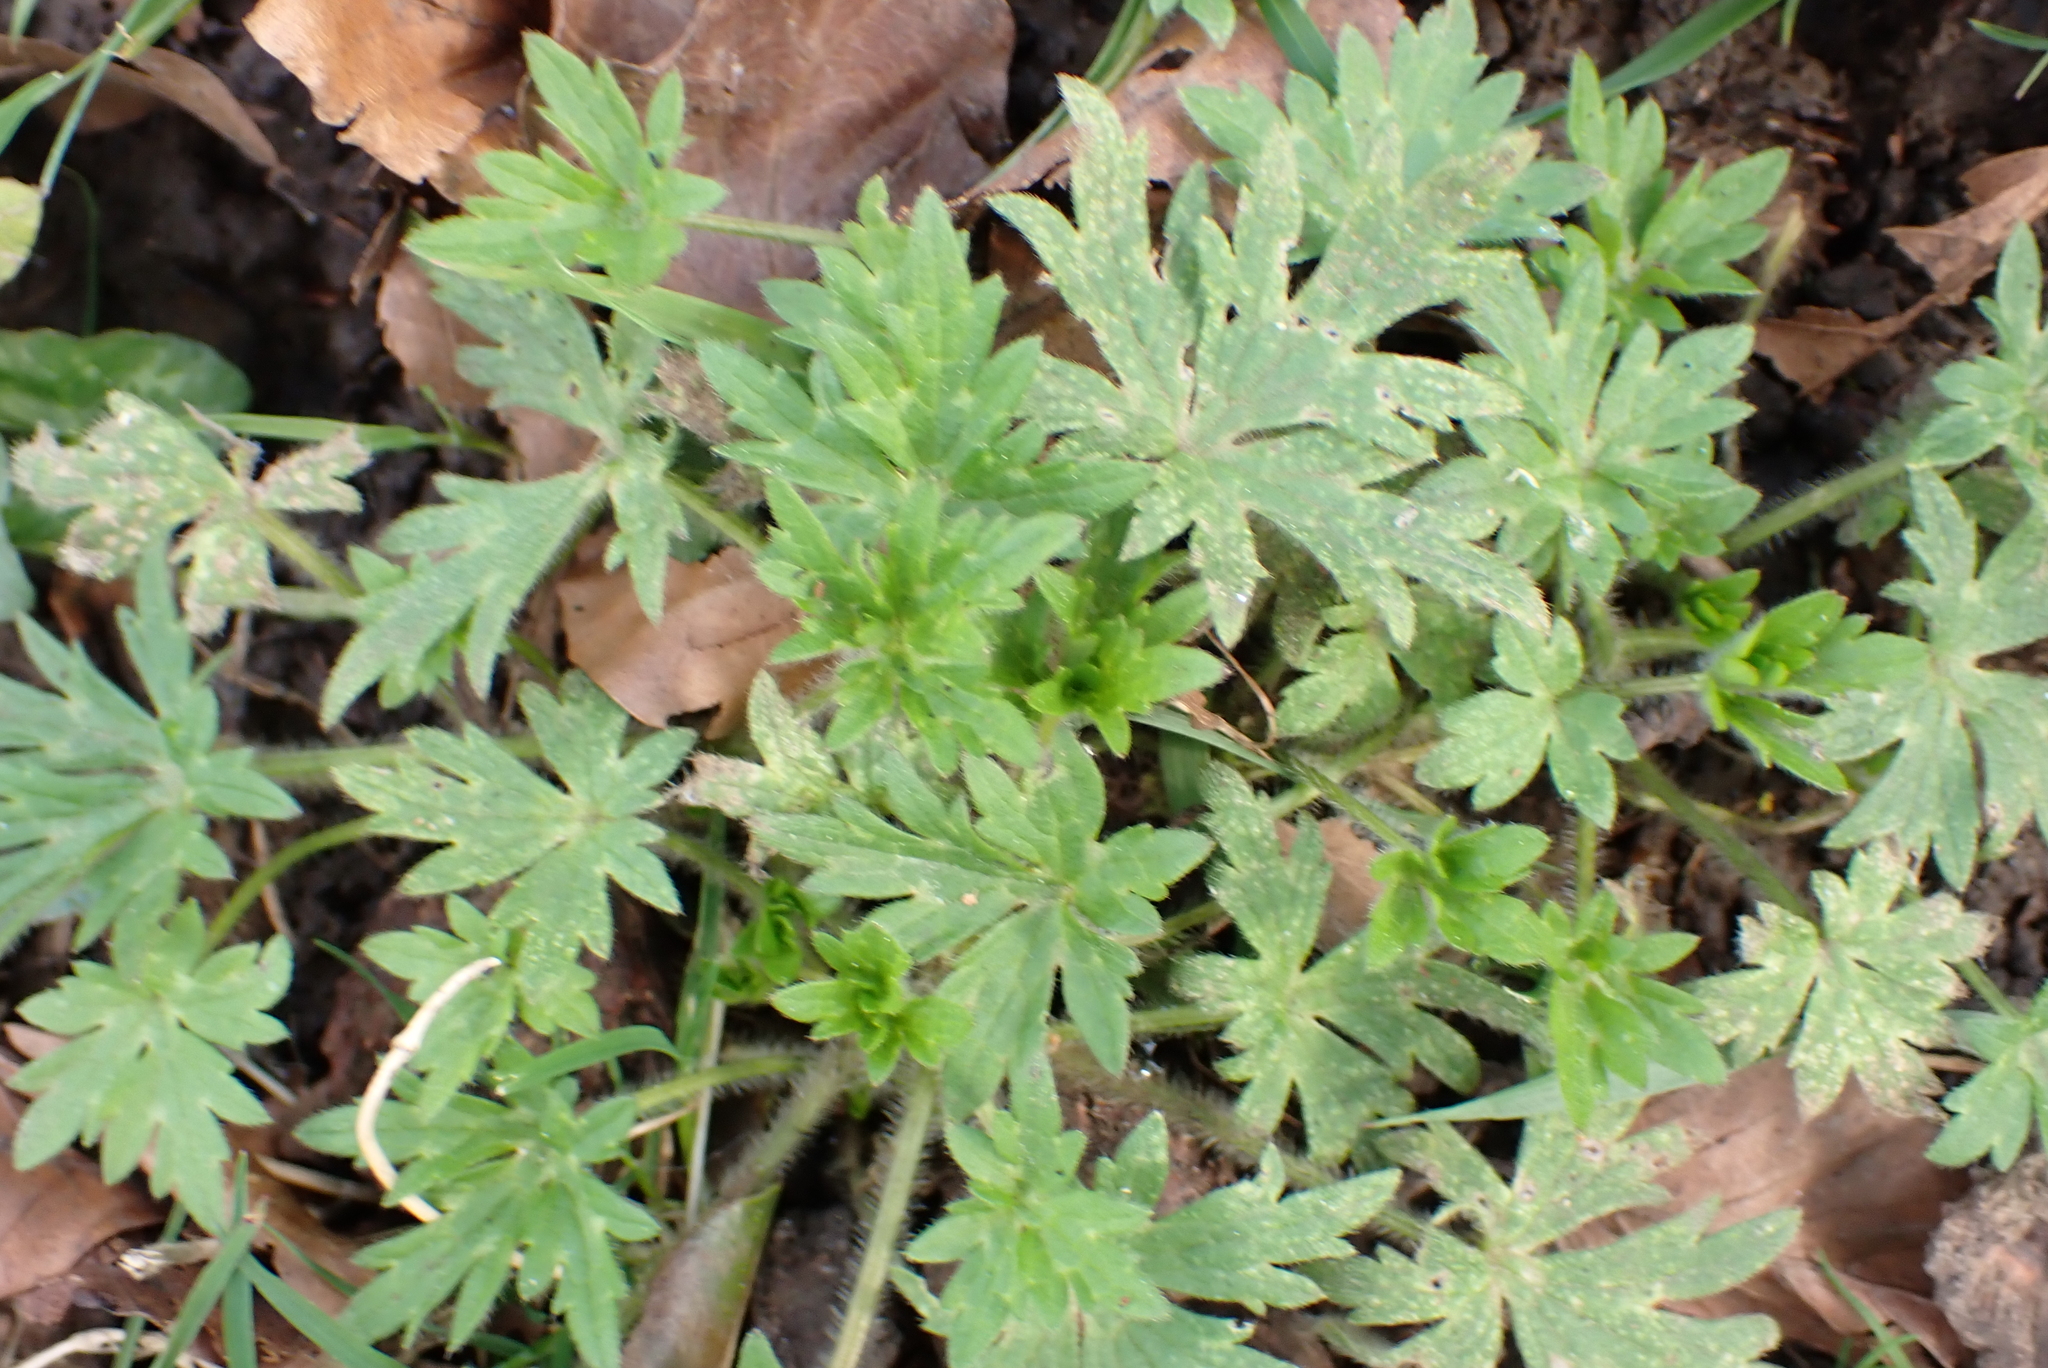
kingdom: Plantae
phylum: Tracheophyta
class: Magnoliopsida
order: Ranunculales
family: Ranunculaceae
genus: Ranunculus
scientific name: Ranunculus acris
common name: Meadow buttercup
